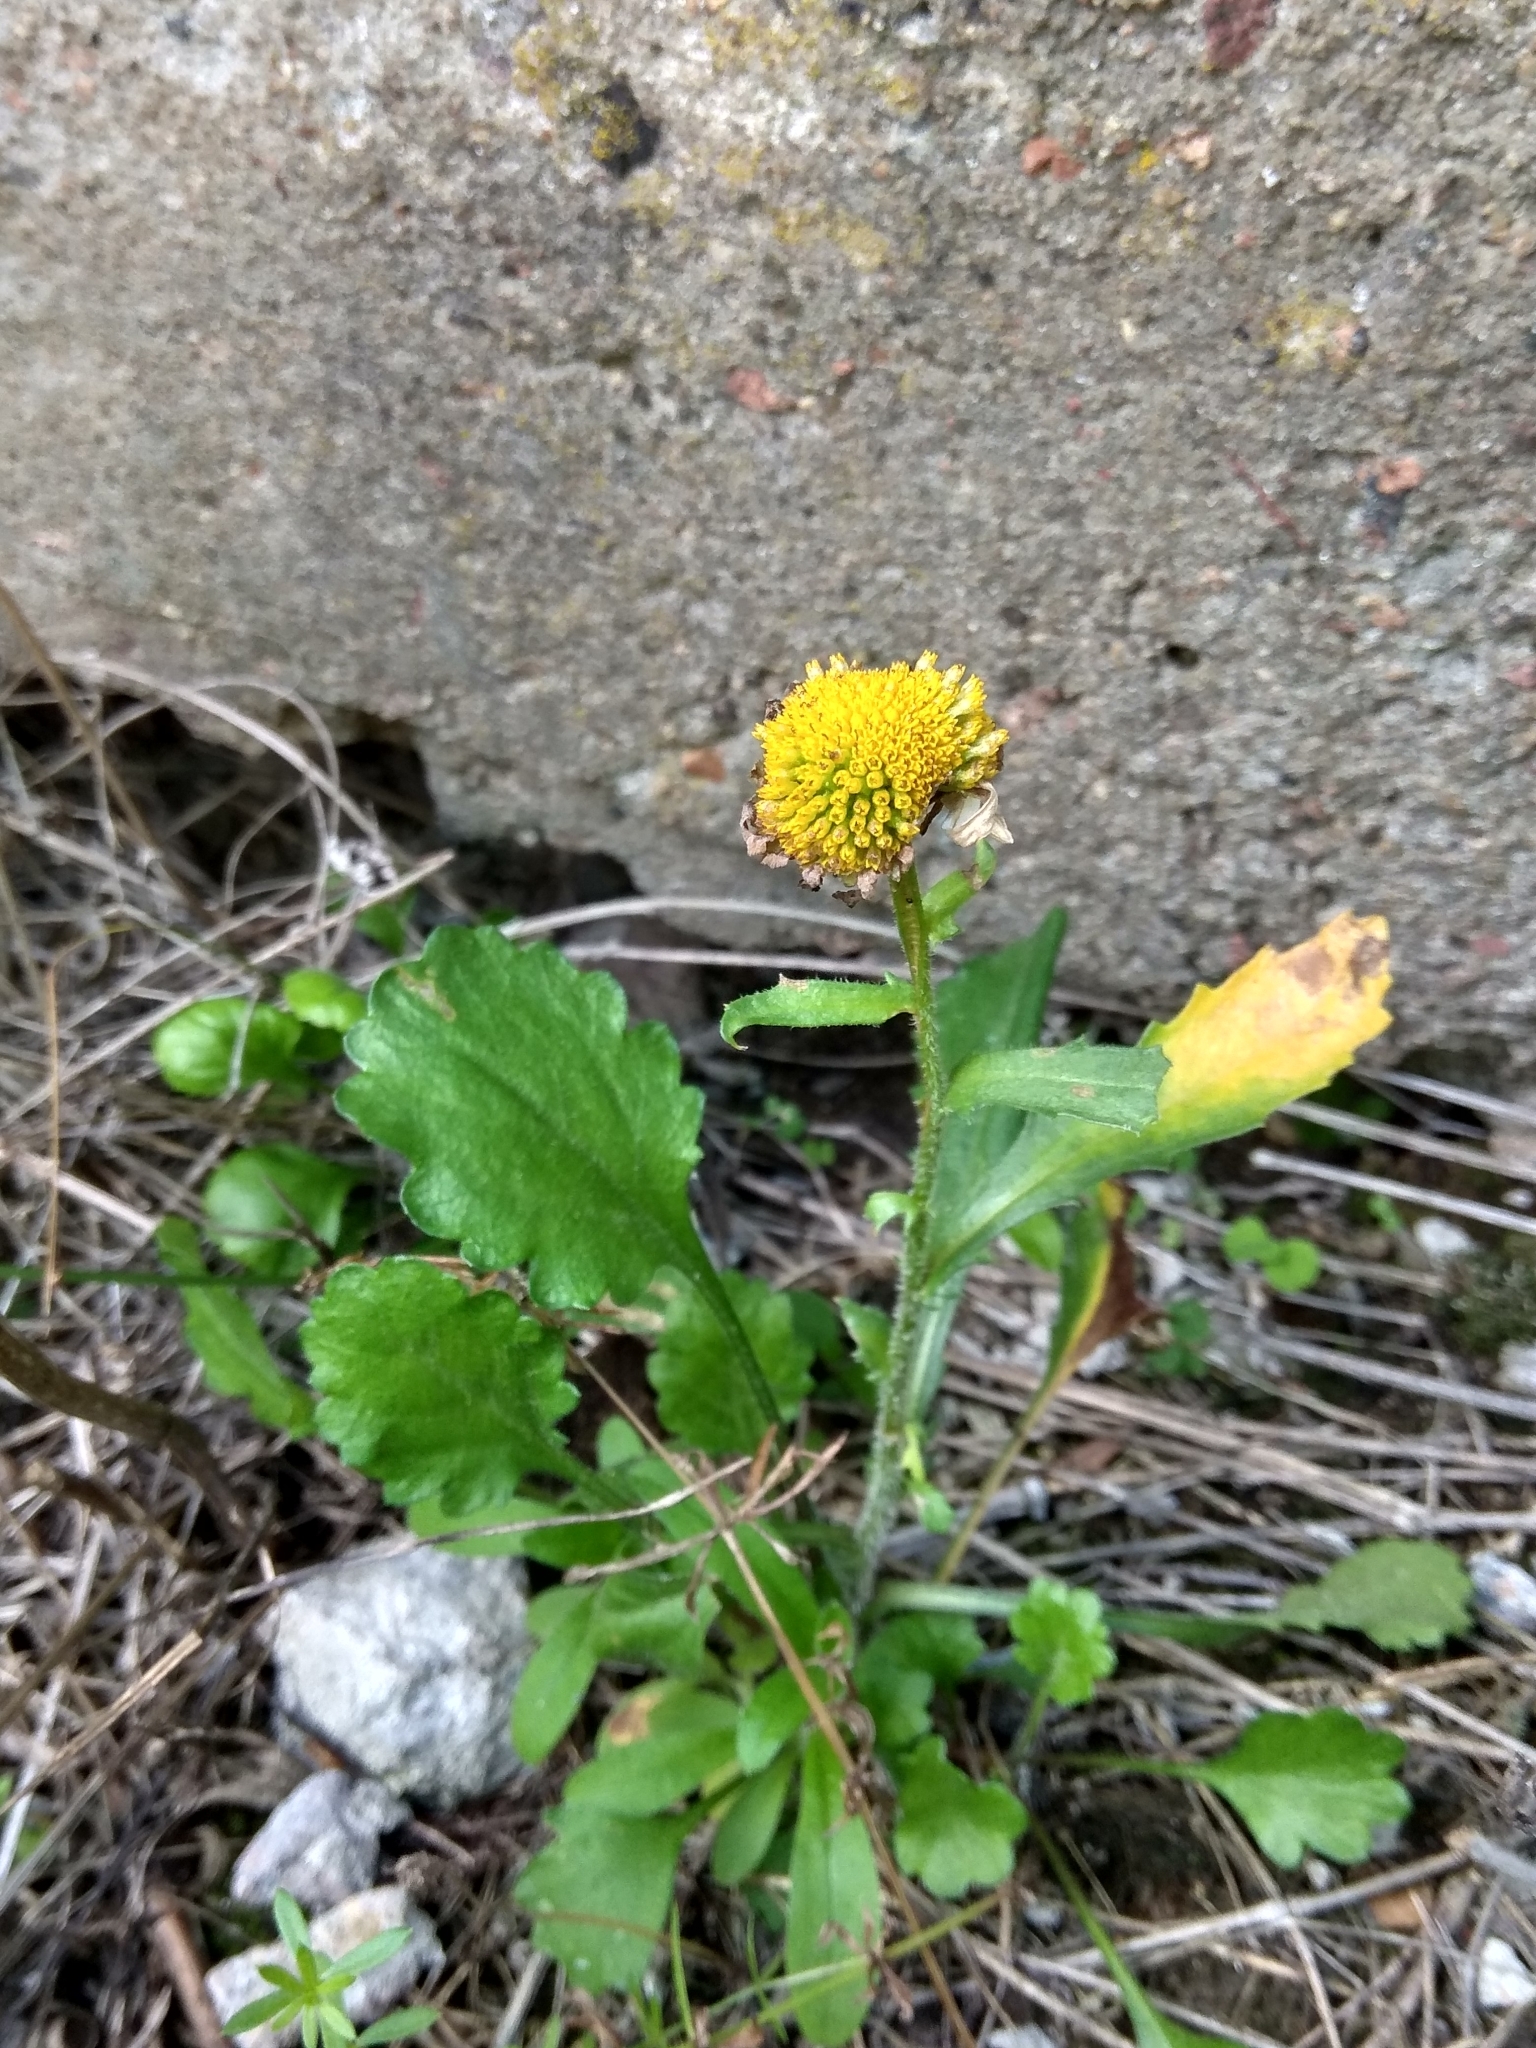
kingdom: Plantae
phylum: Tracheophyta
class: Magnoliopsida
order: Asterales
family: Asteraceae
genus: Leucanthemum
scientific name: Leucanthemum vulgare
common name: Oxeye daisy
